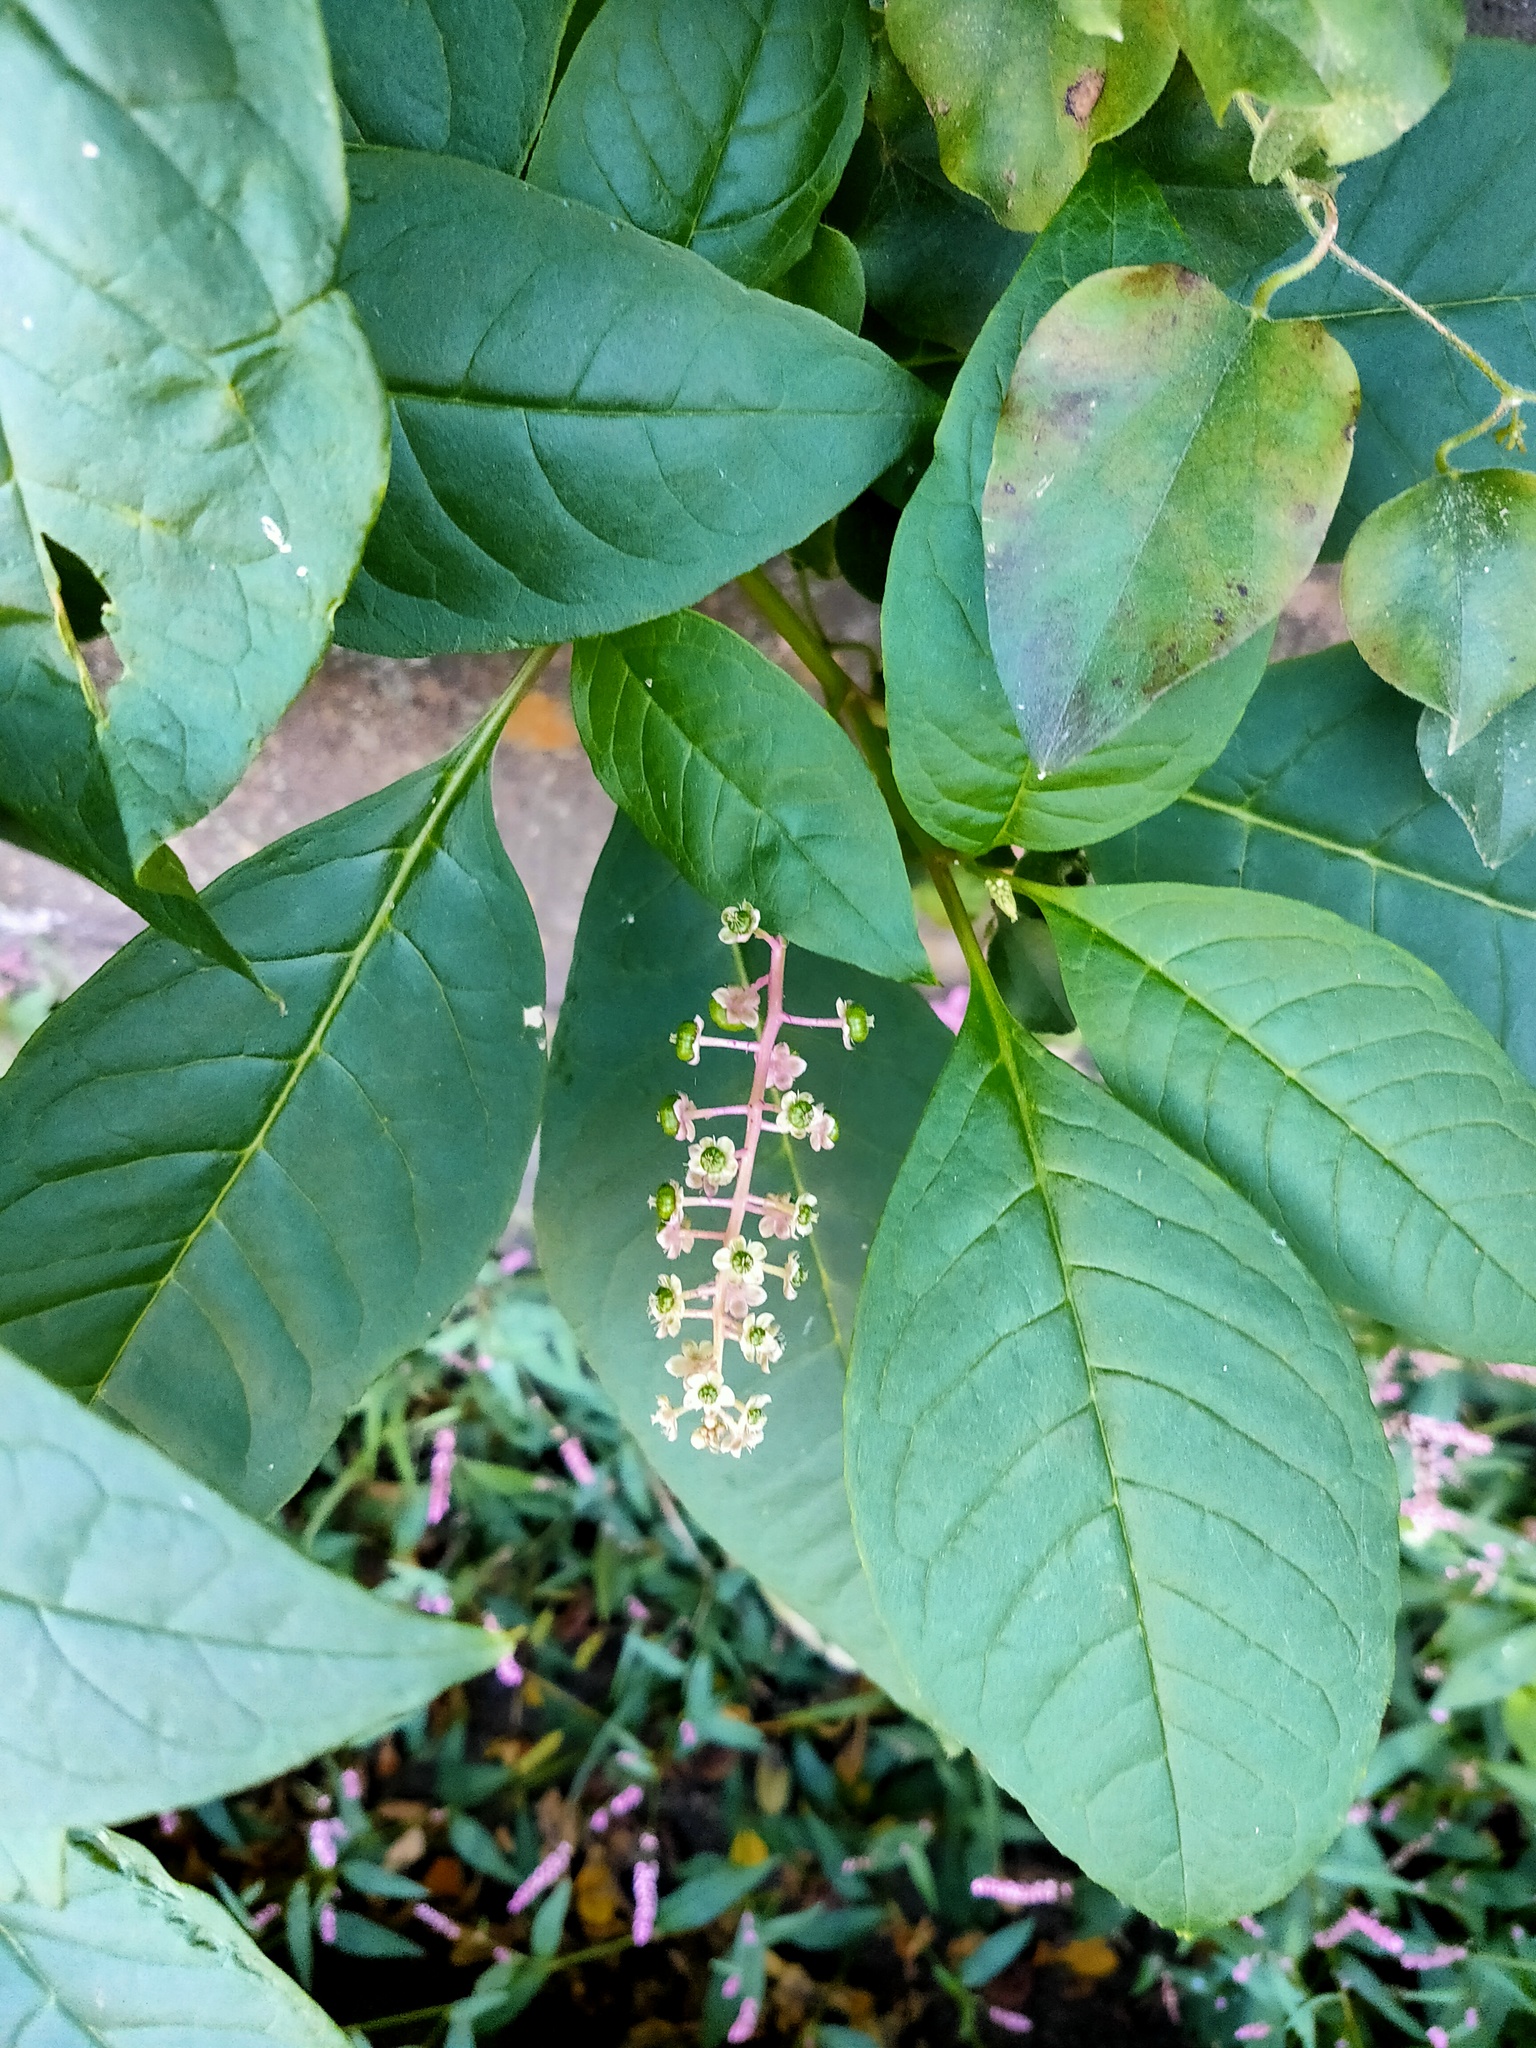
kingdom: Plantae
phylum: Tracheophyta
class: Magnoliopsida
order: Caryophyllales
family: Phytolaccaceae
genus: Phytolacca
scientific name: Phytolacca americana
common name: American pokeweed
